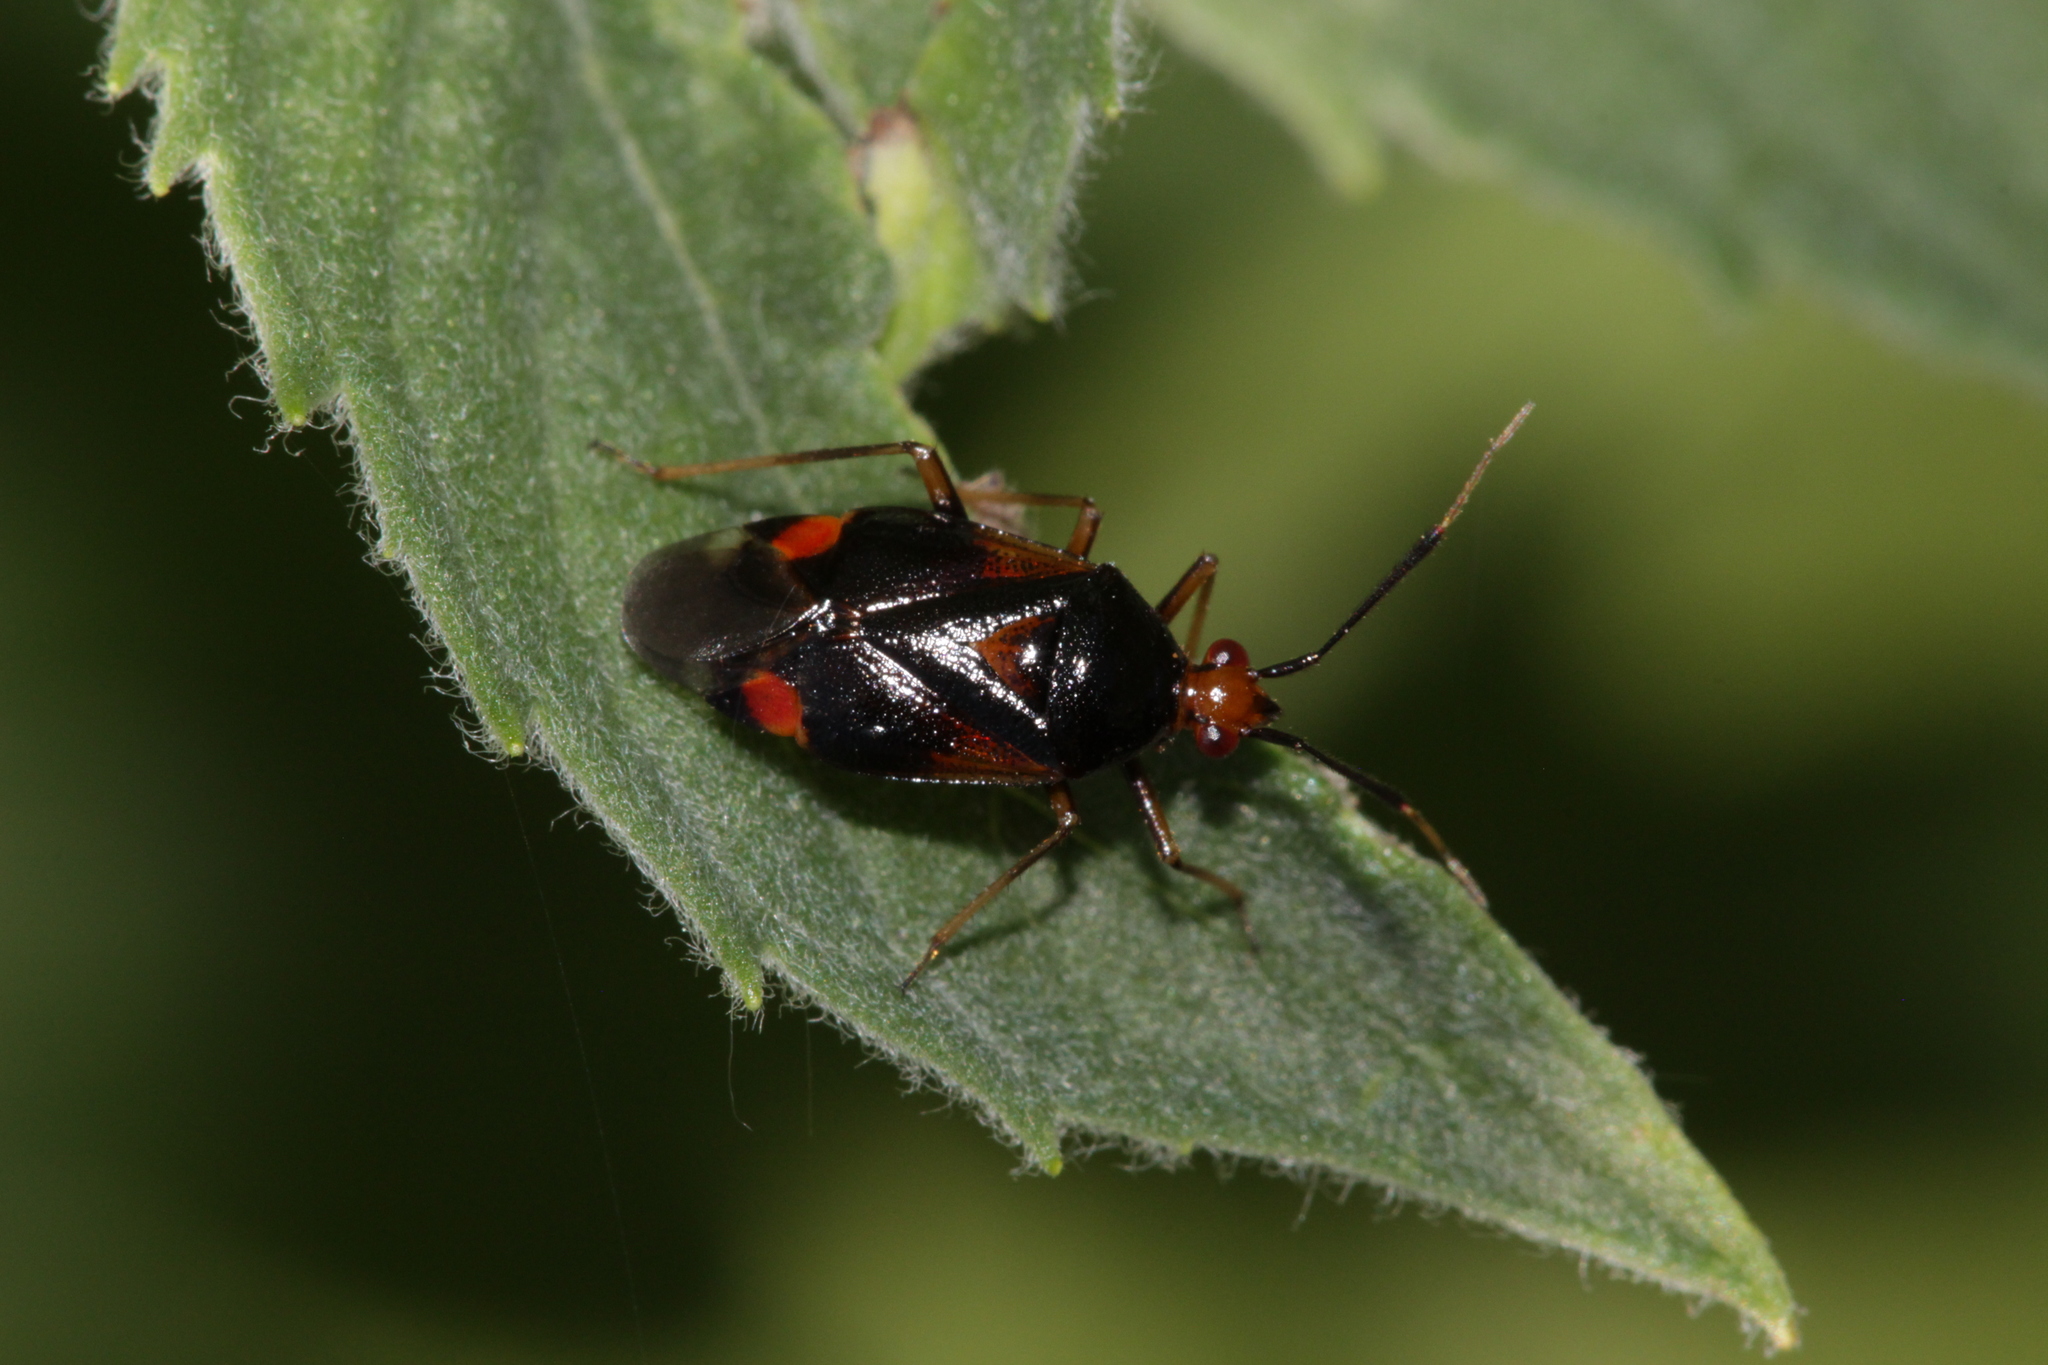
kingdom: Animalia
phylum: Arthropoda
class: Insecta
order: Hemiptera
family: Miridae
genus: Deraeocoris
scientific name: Deraeocoris ruber
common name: Plant bug
